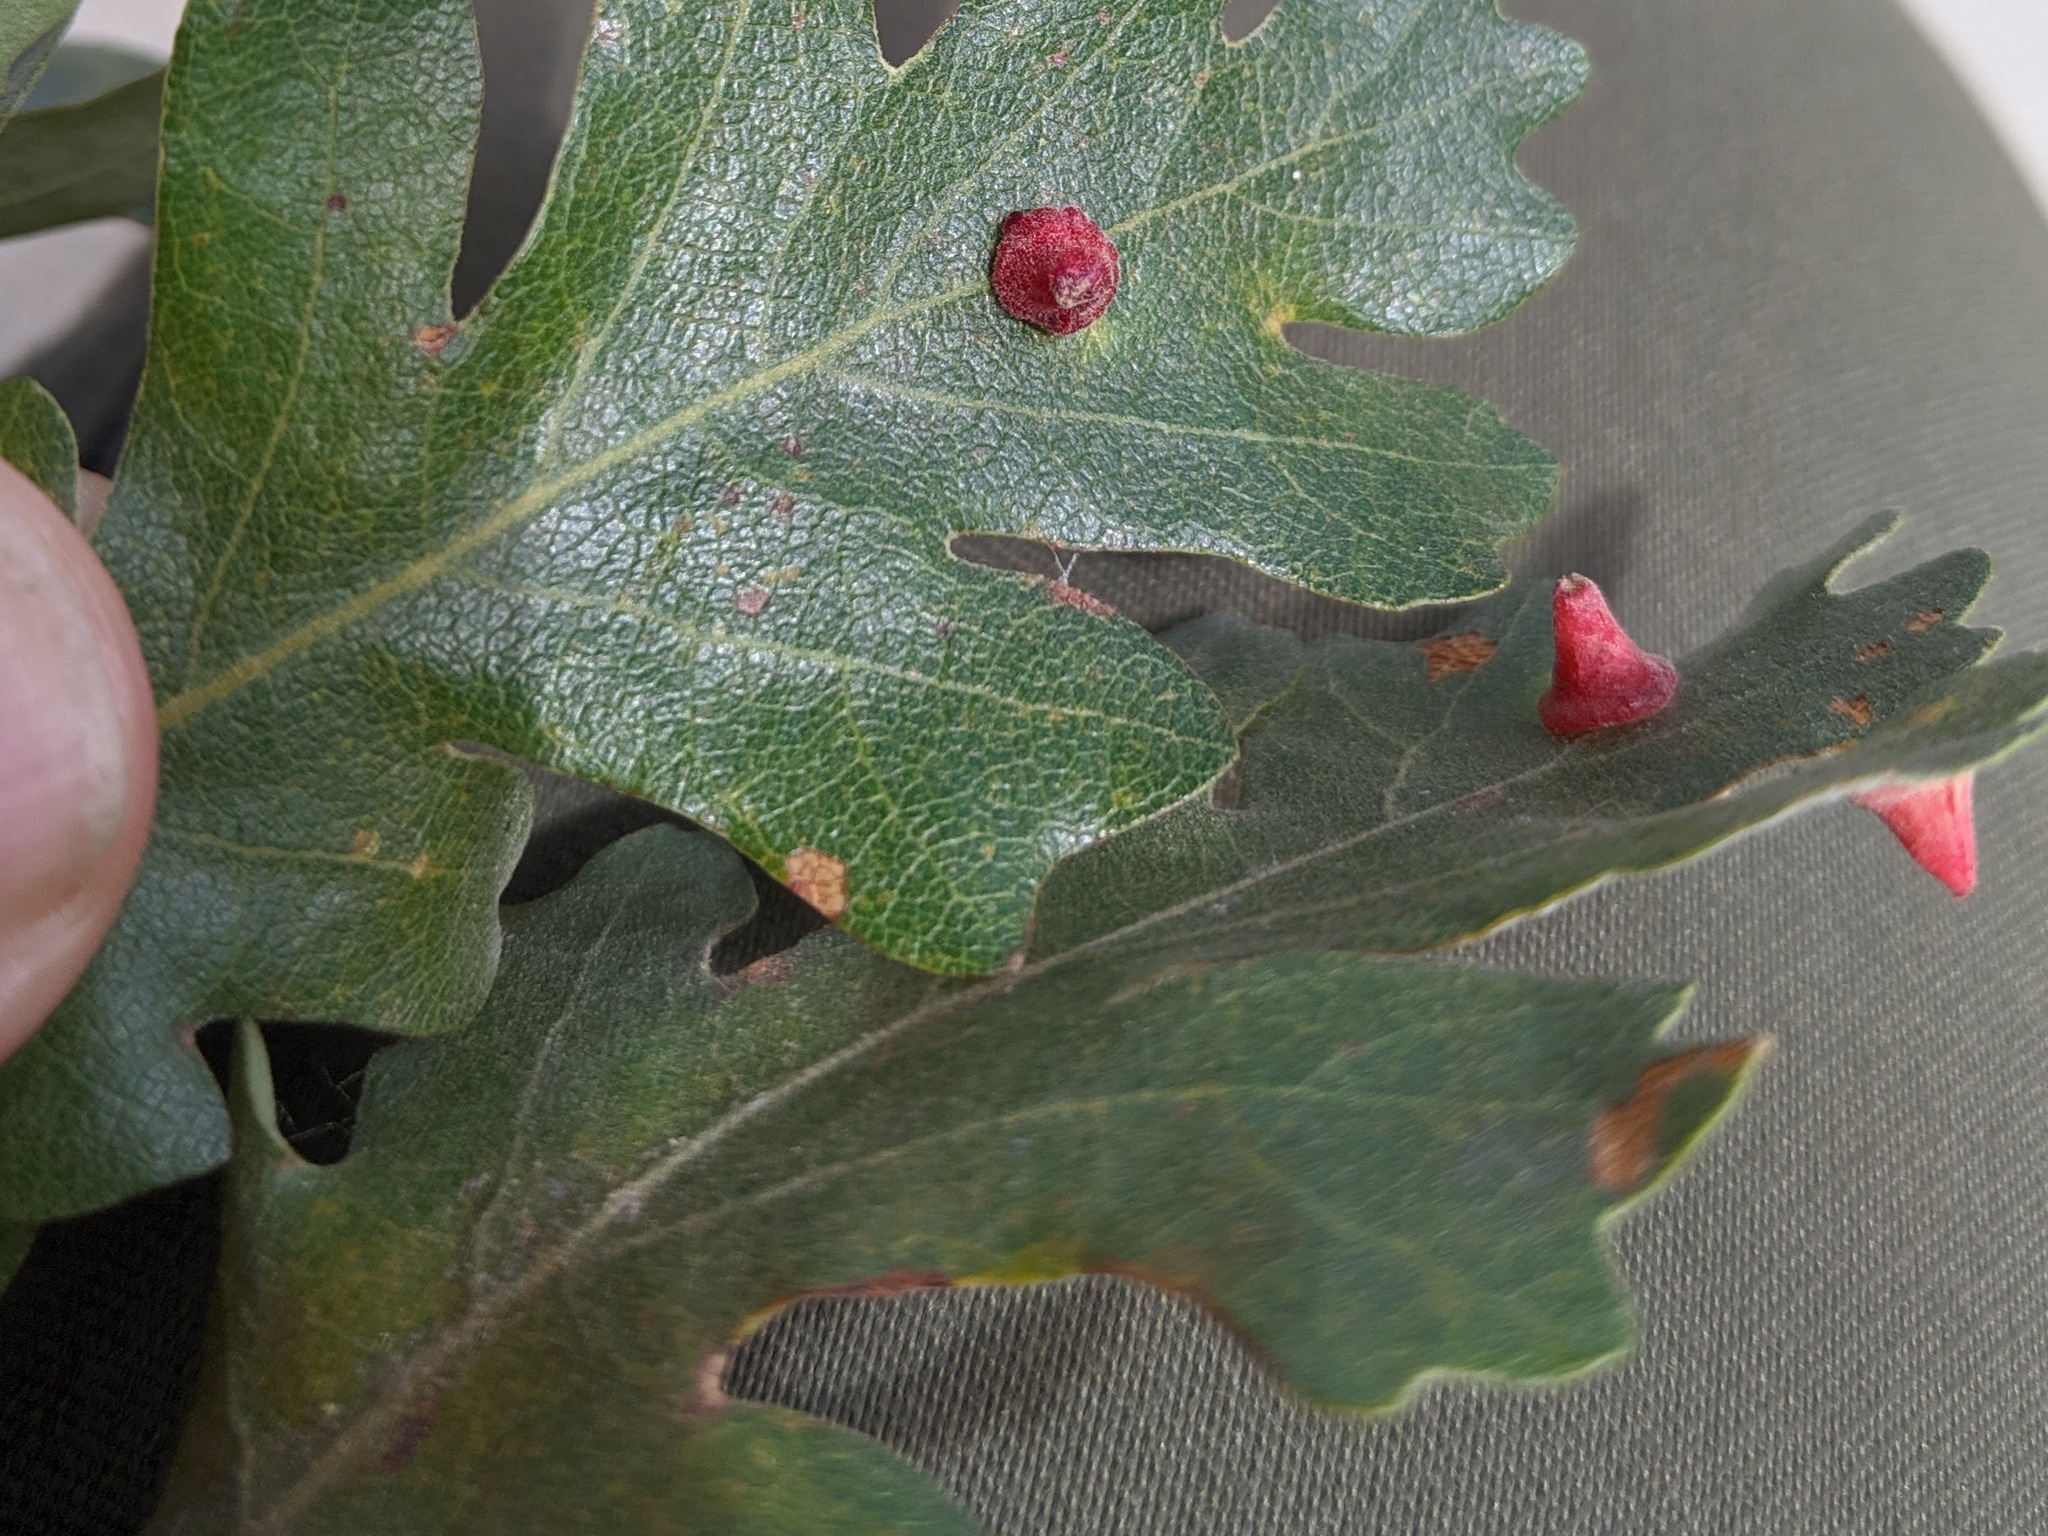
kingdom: Animalia
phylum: Arthropoda
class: Insecta
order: Hymenoptera
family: Cynipidae
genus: Andricus
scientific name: Andricus
